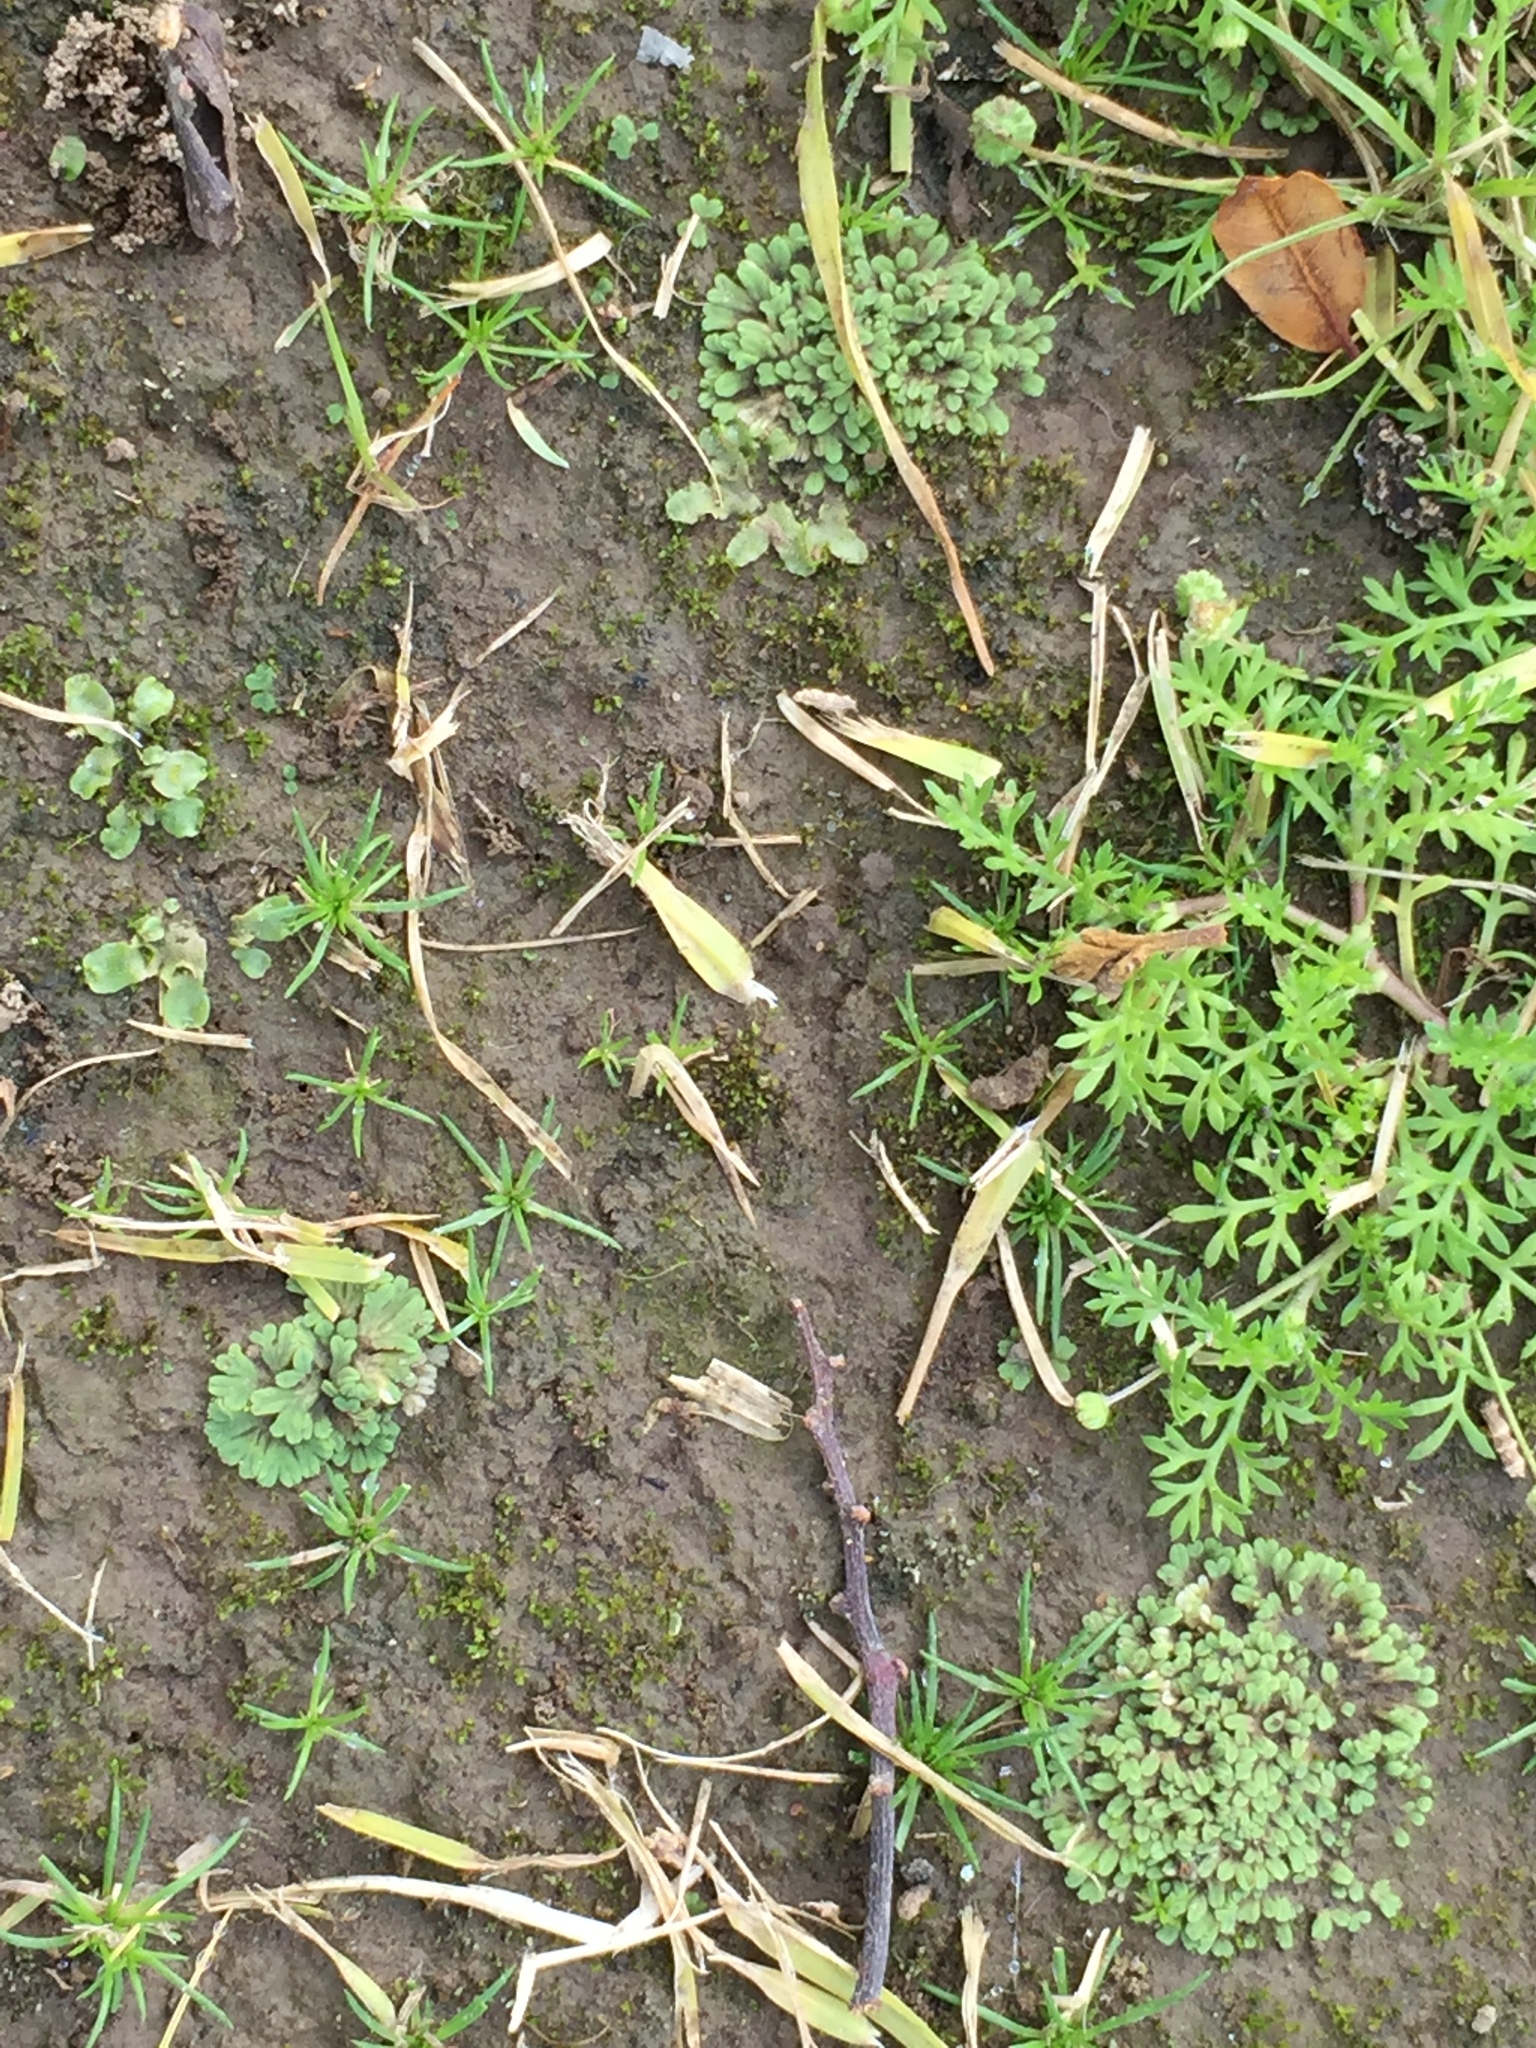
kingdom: Plantae
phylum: Marchantiophyta
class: Marchantiopsida
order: Marchantiales
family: Ricciaceae
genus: Riccia
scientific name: Riccia sorocarpa
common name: Common crystalwort
